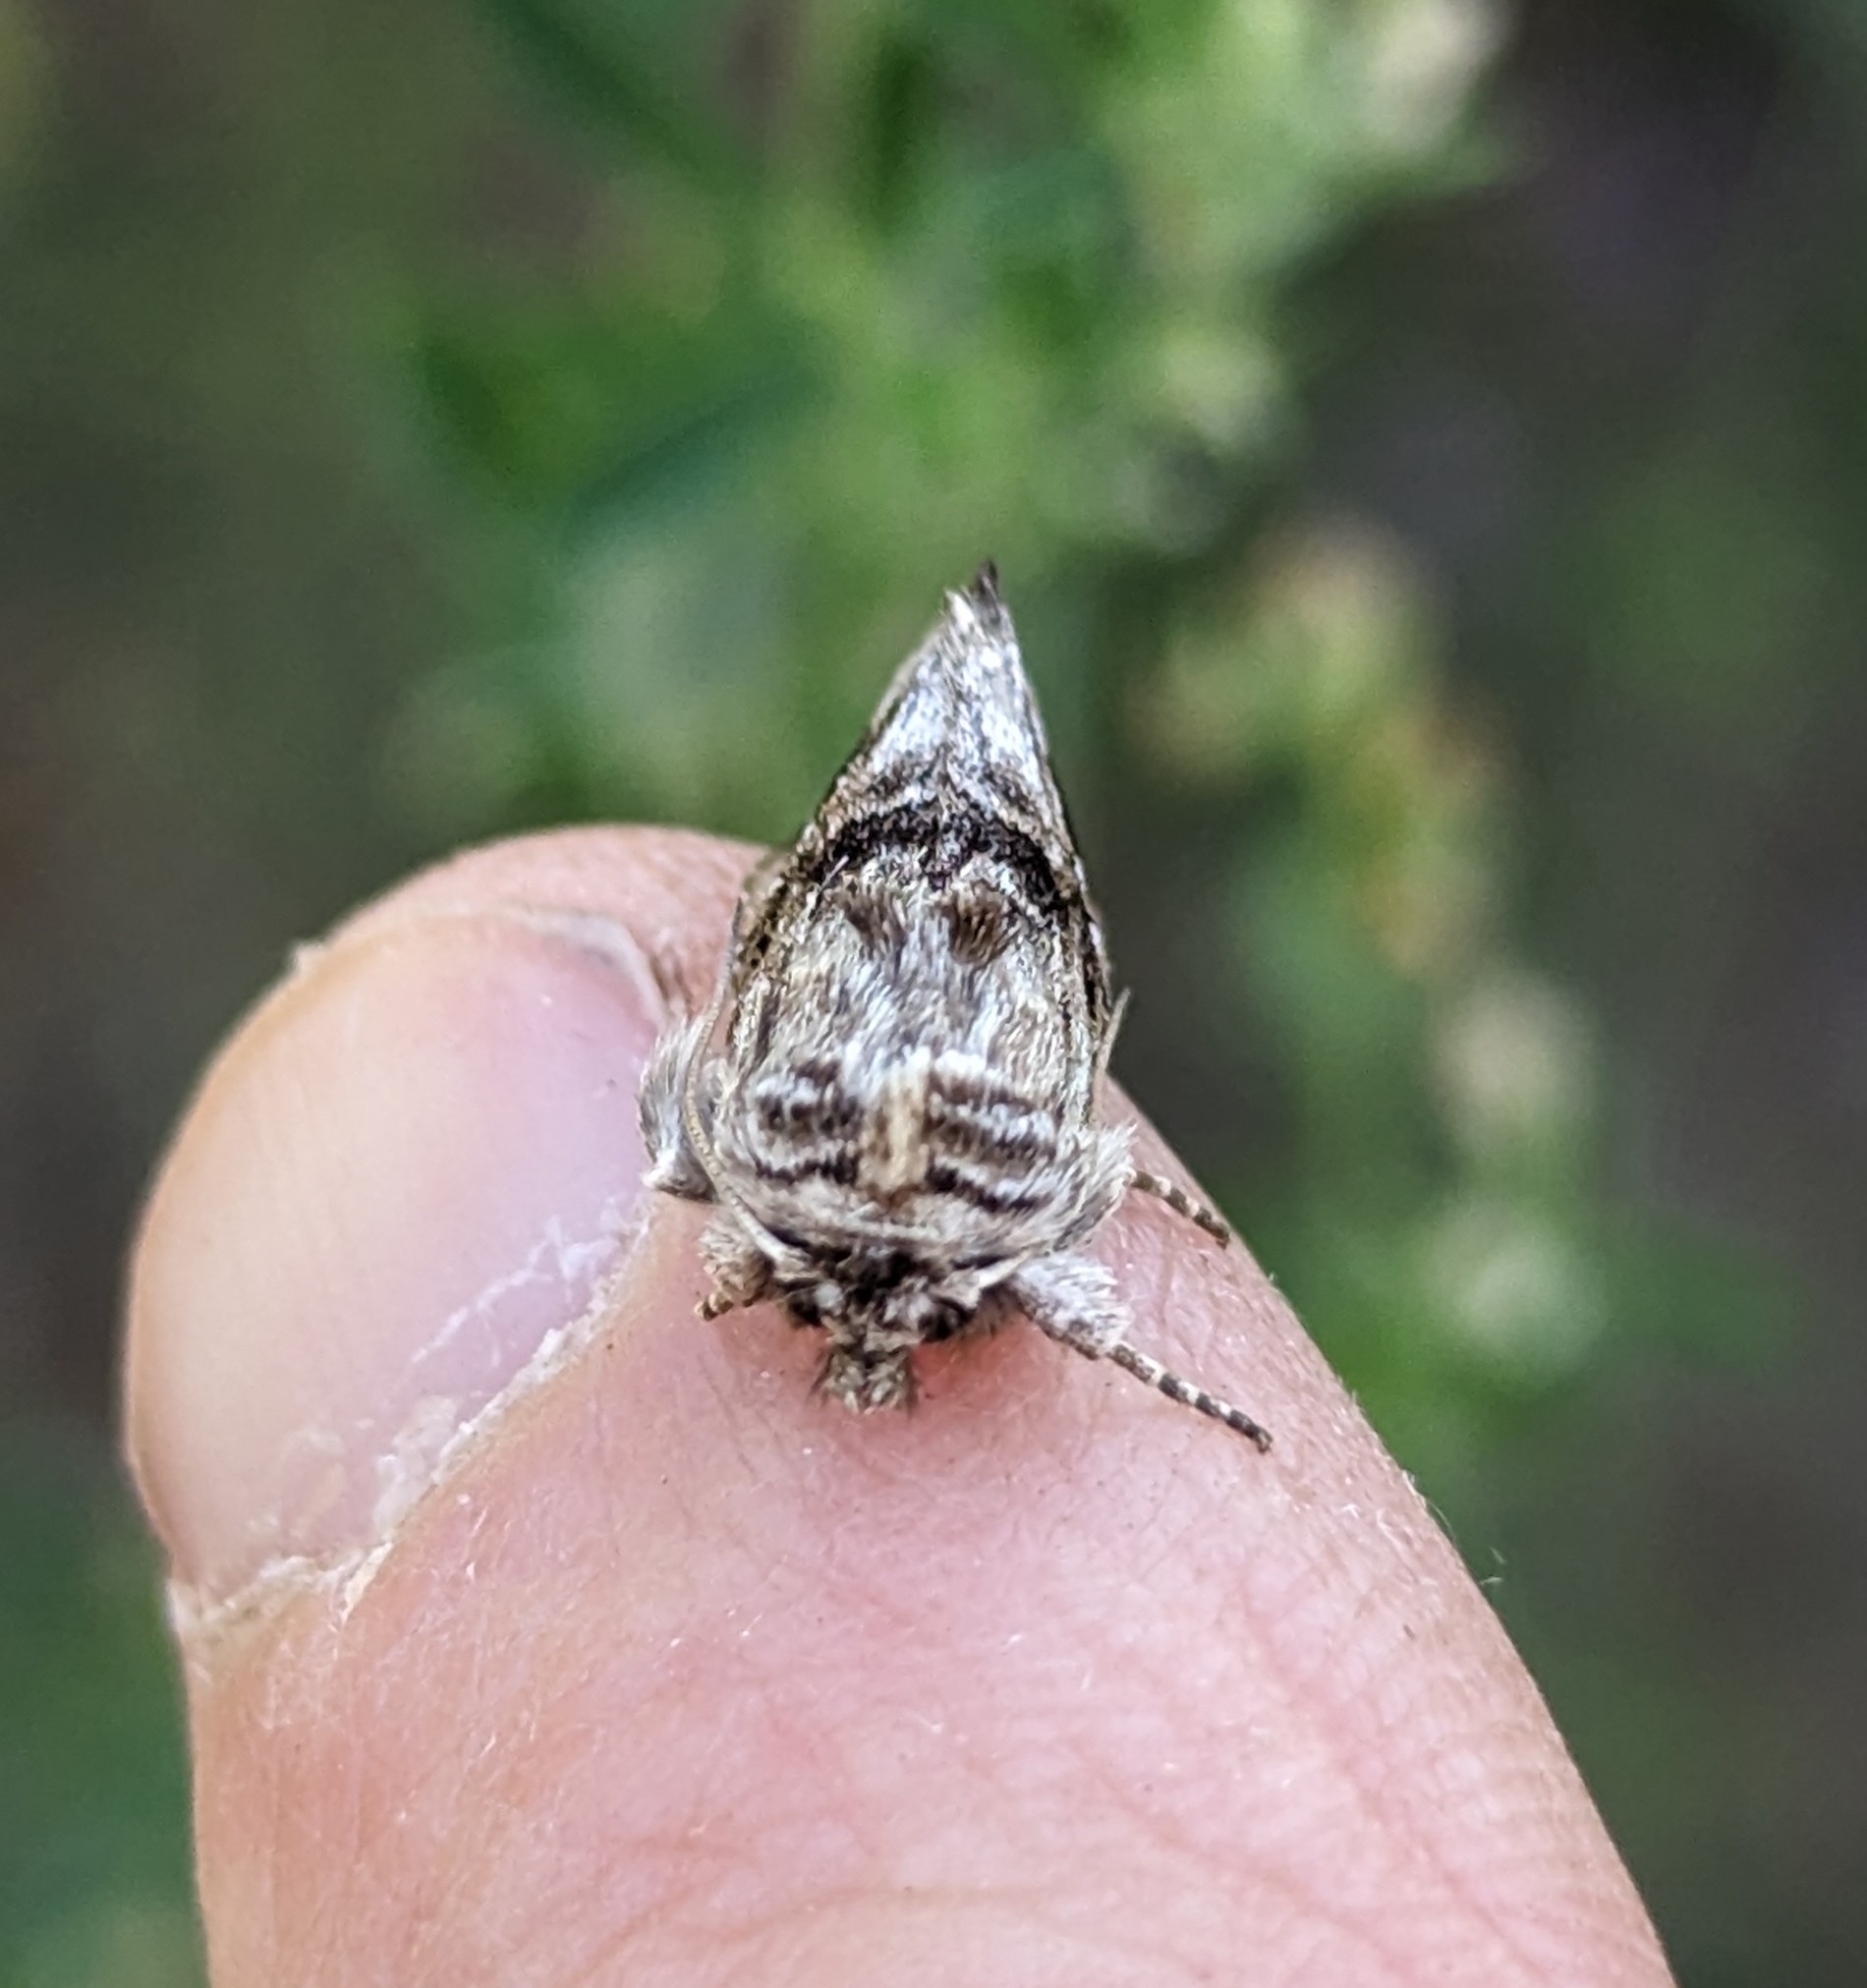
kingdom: Animalia
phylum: Arthropoda
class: Insecta
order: Lepidoptera
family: Noctuidae
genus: Calophasia
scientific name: Calophasia lunula
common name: Toadflax brocade
